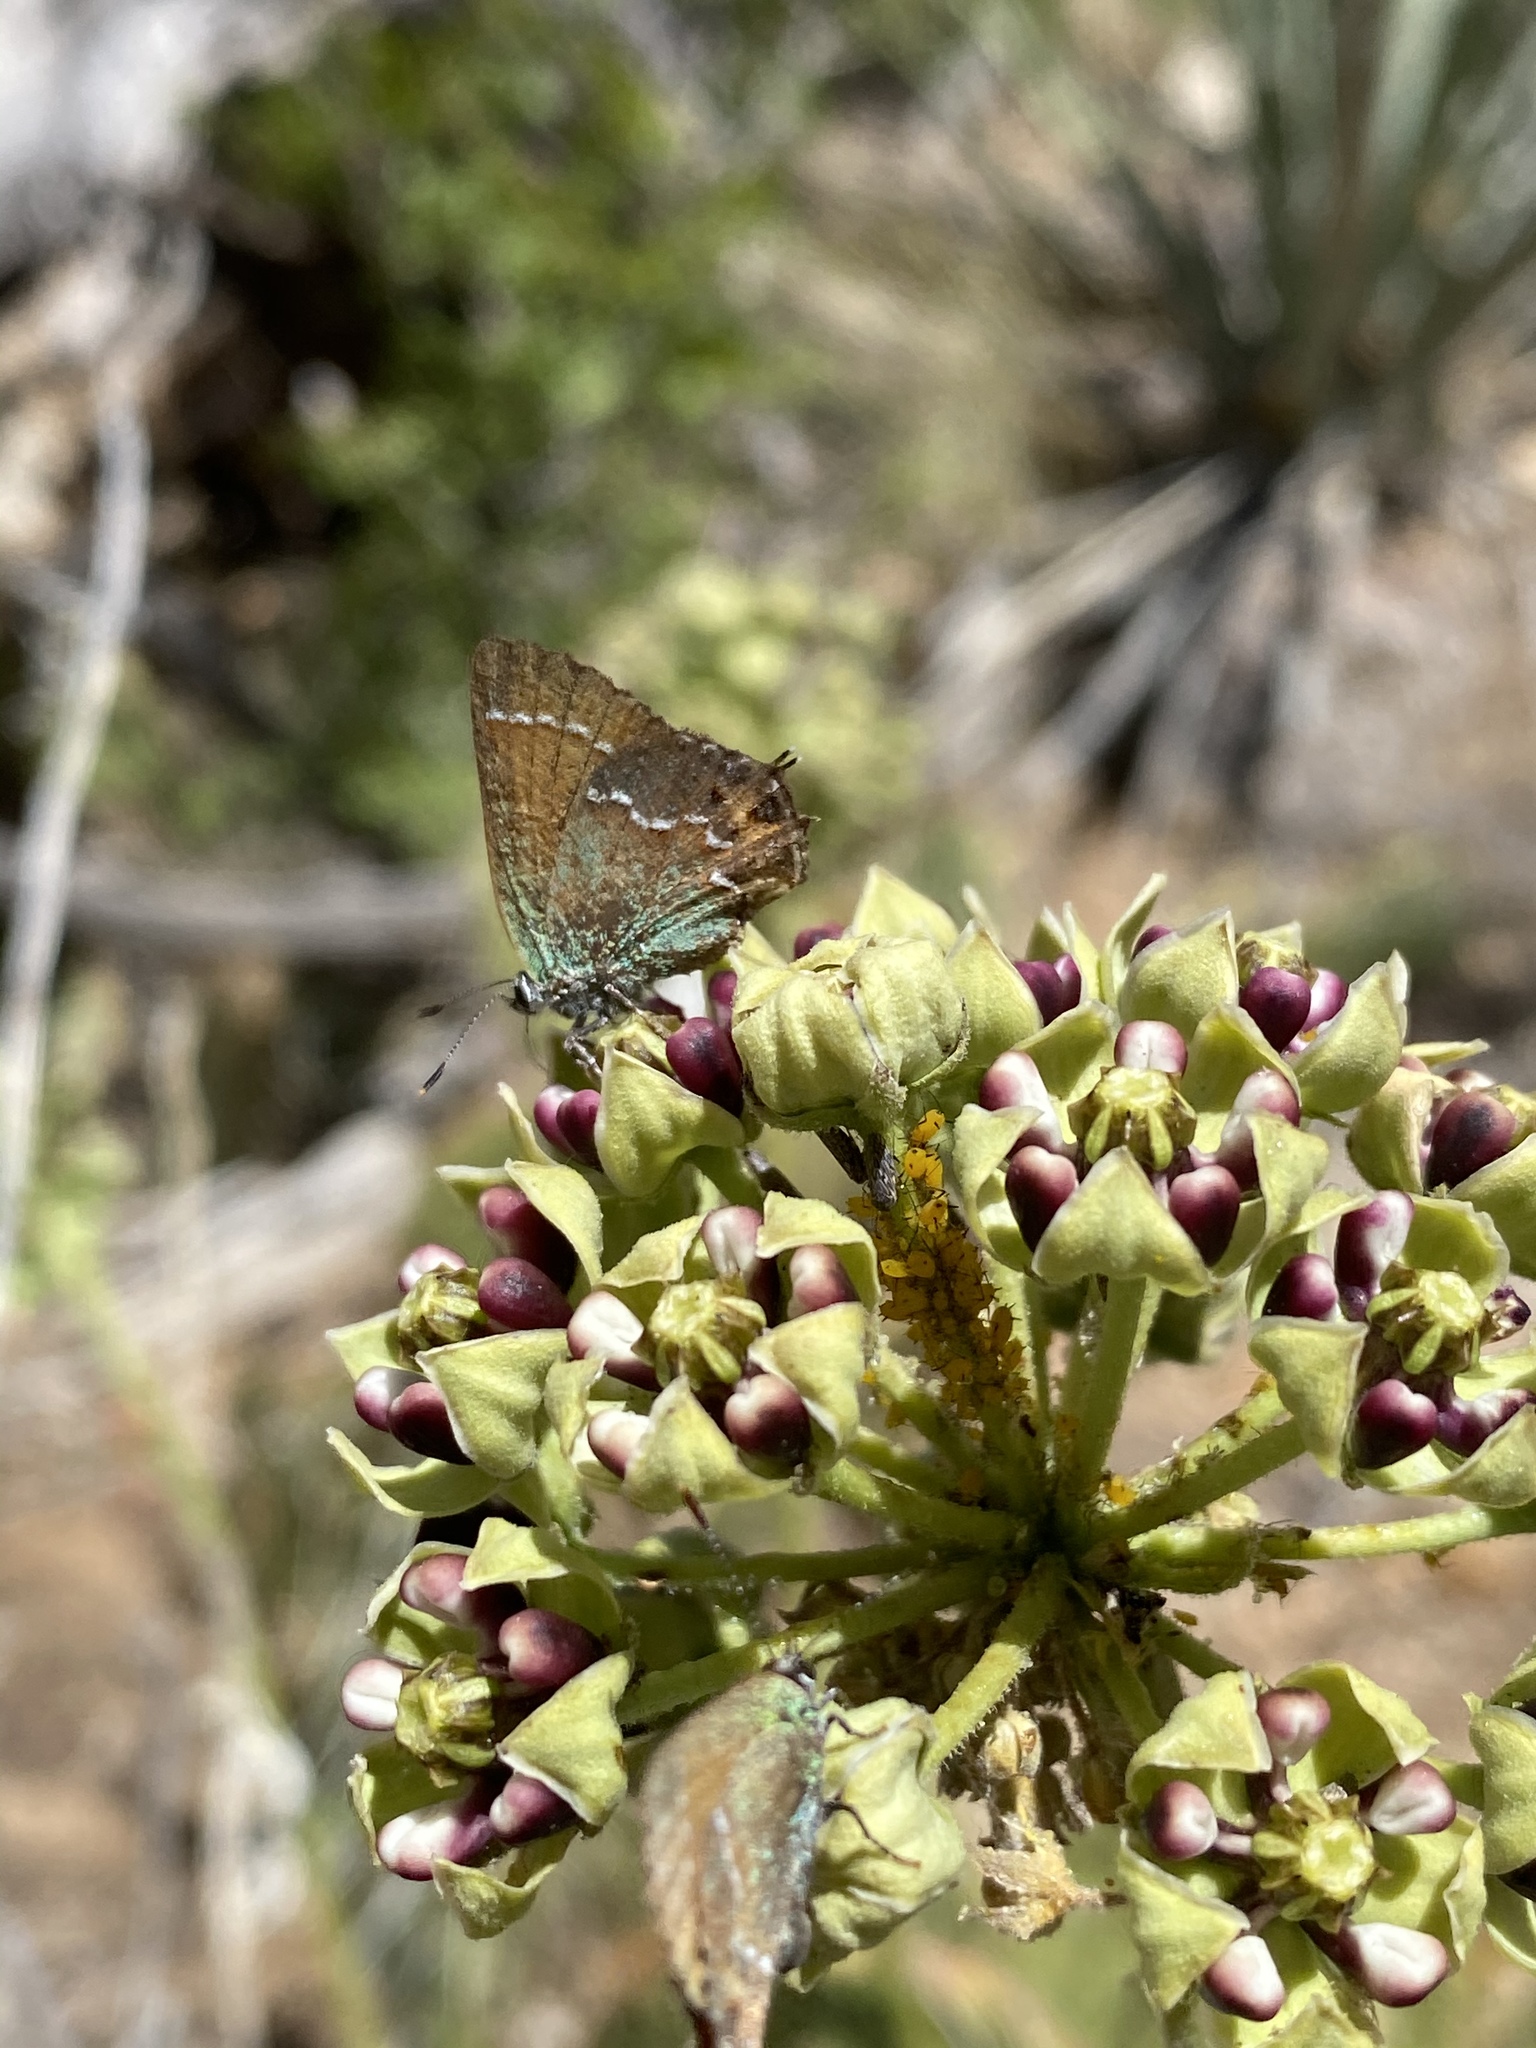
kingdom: Animalia
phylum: Arthropoda
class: Insecta
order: Lepidoptera
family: Lycaenidae
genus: Mitoura
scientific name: Mitoura gryneus
